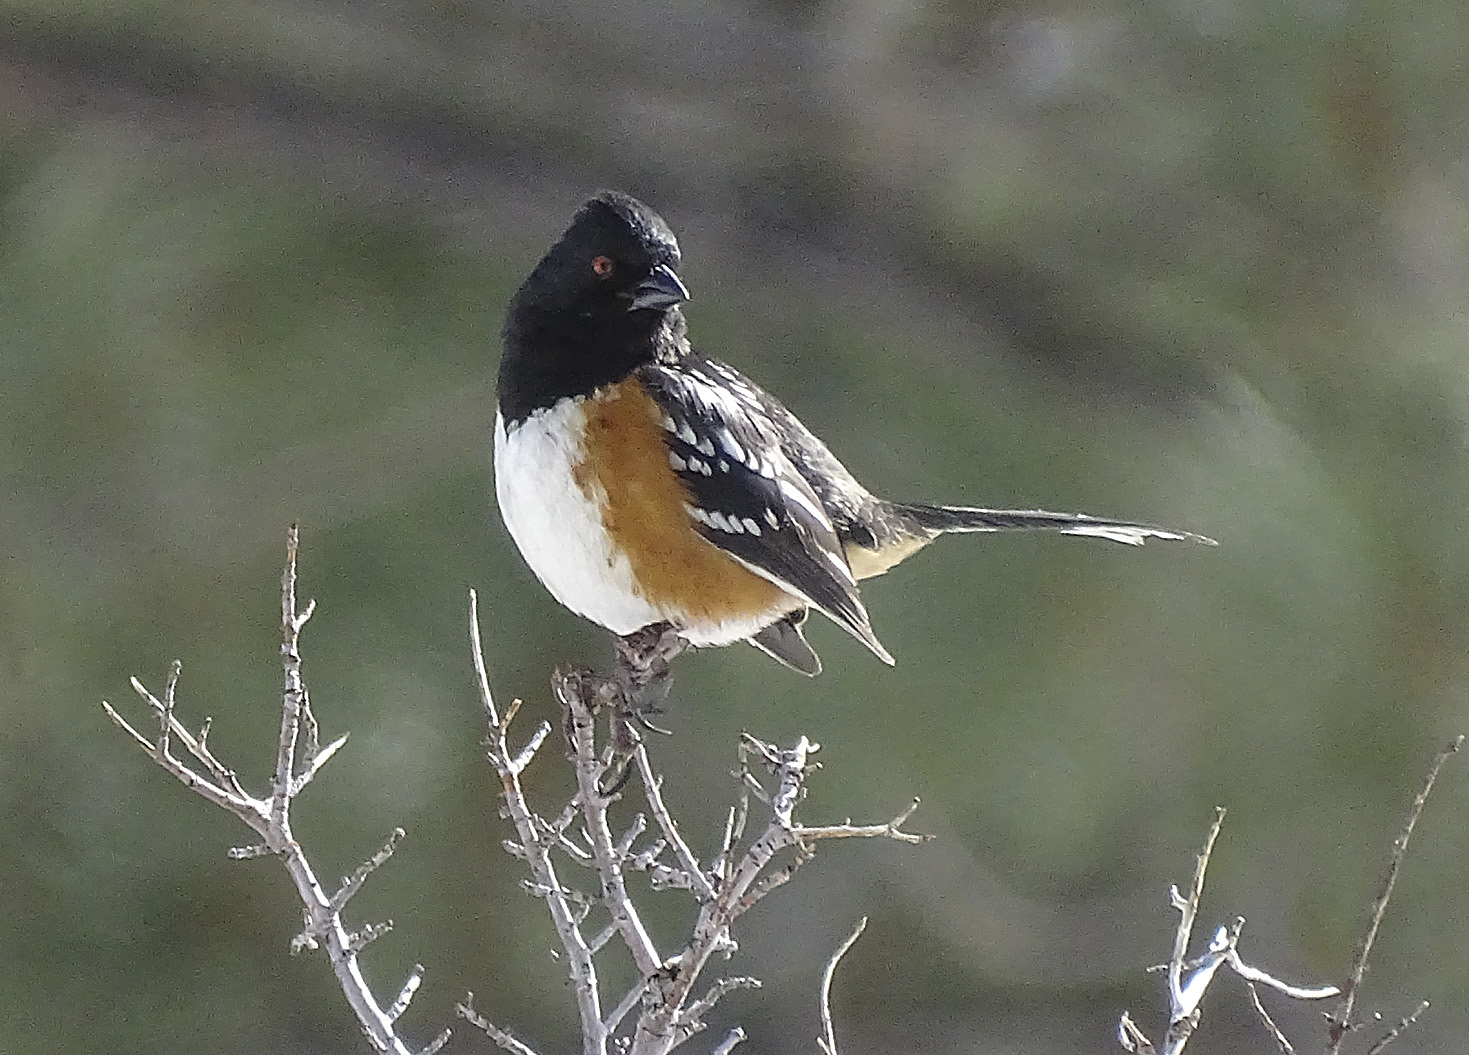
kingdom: Animalia
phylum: Chordata
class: Aves
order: Passeriformes
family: Passerellidae
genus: Pipilo
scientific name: Pipilo maculatus
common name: Spotted towhee
